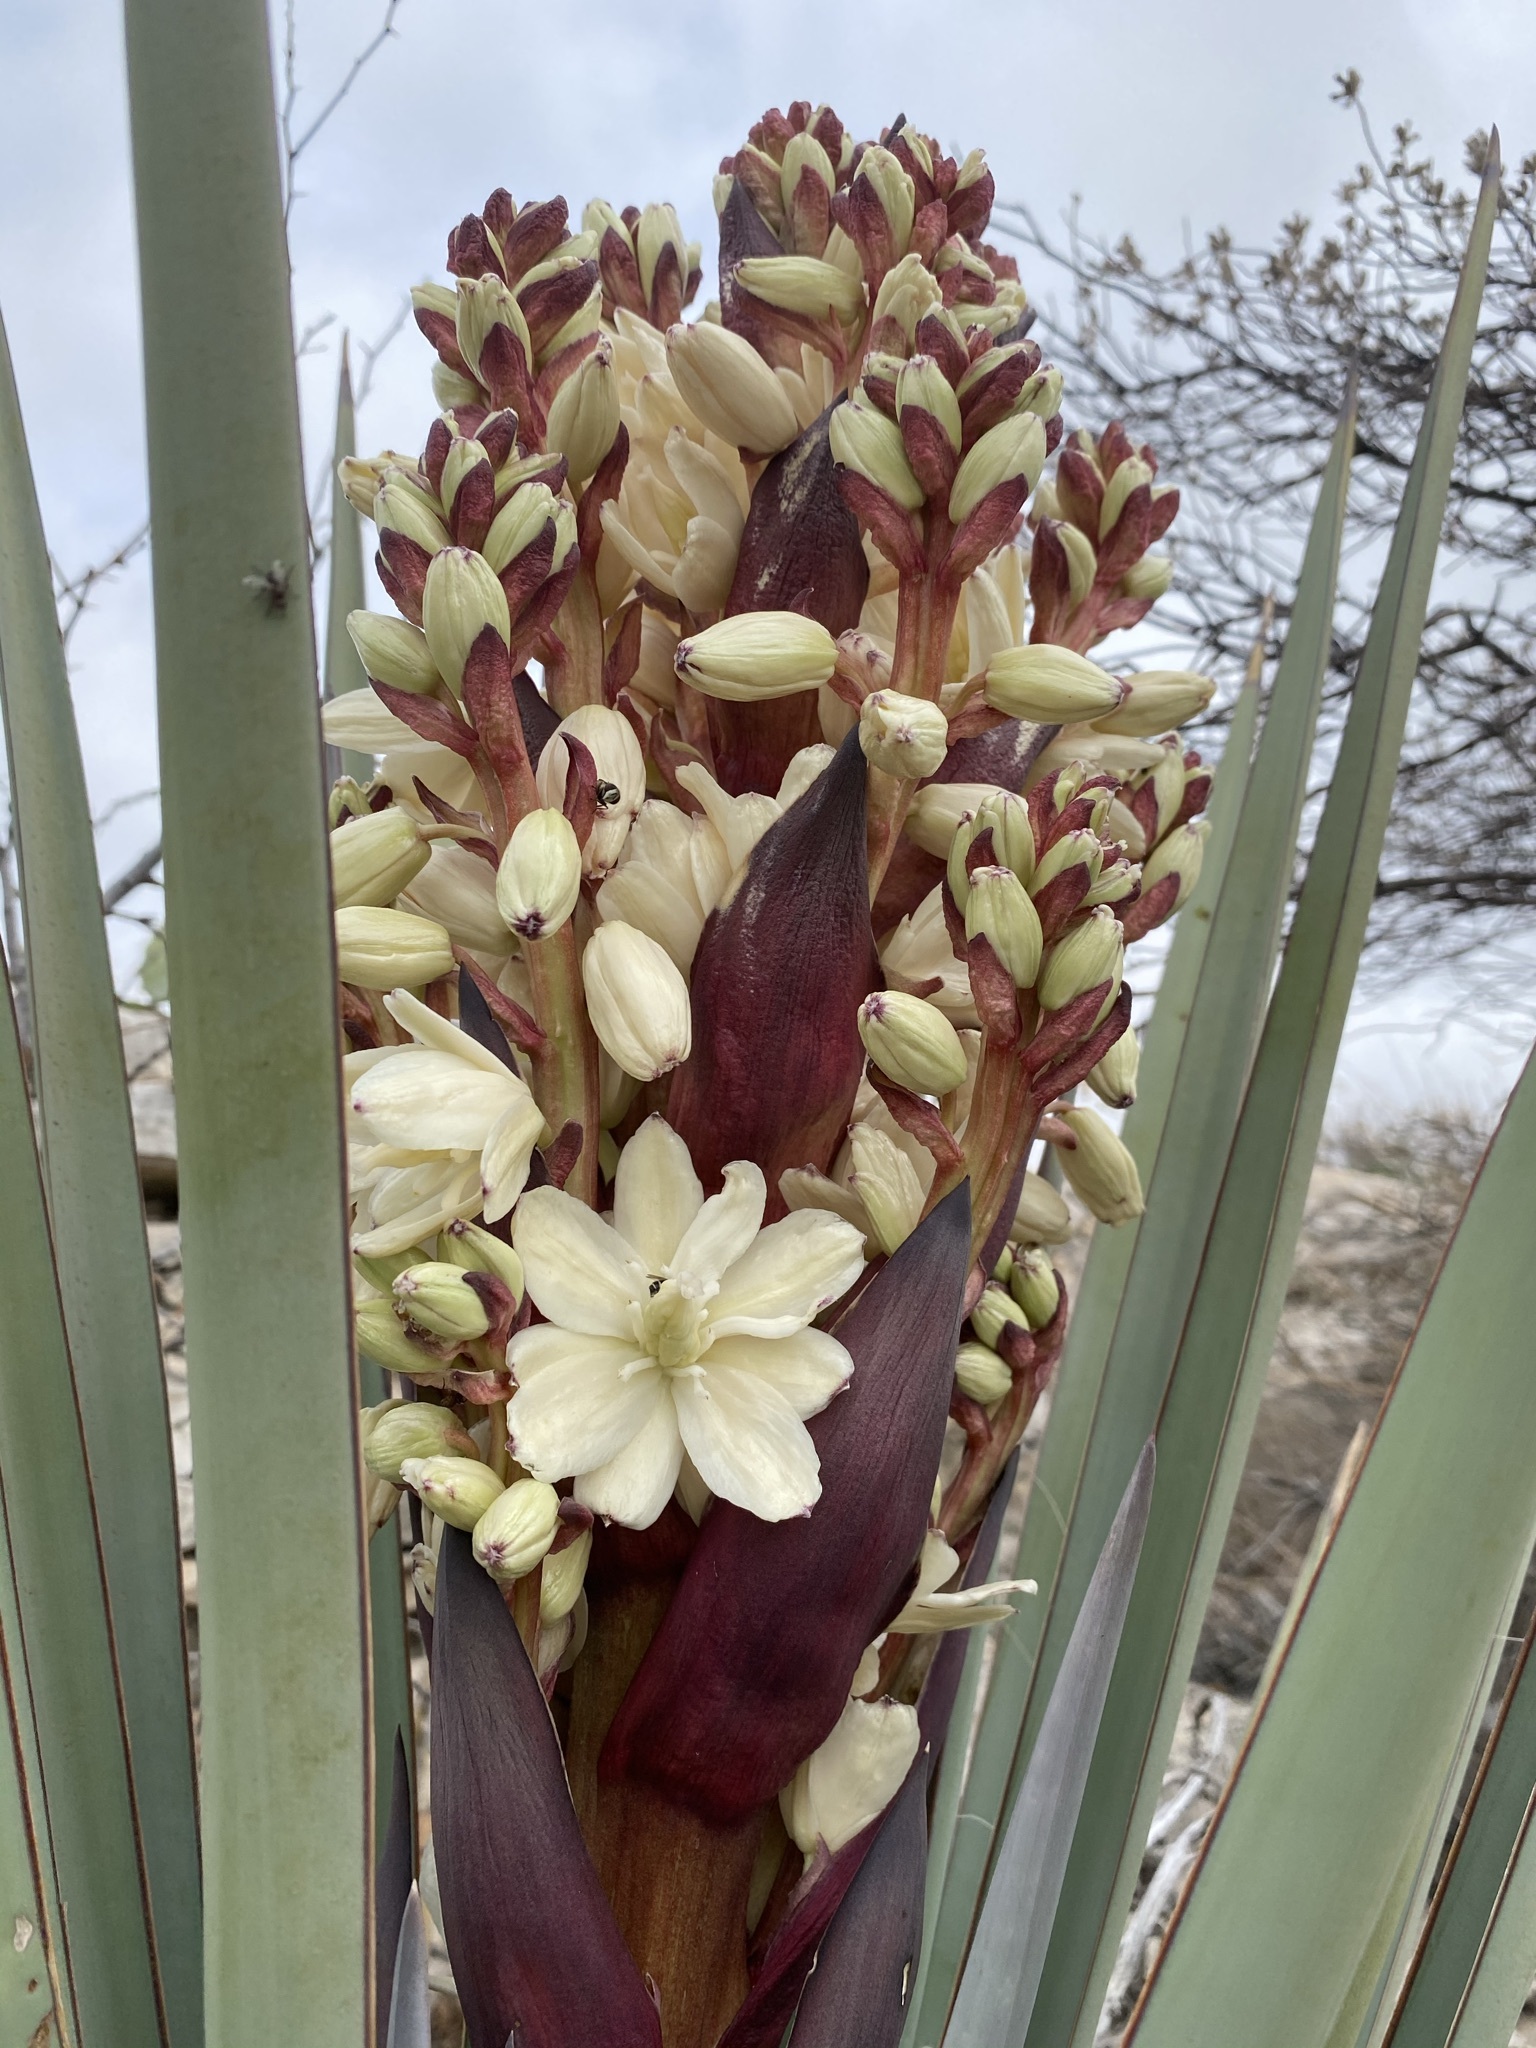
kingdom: Plantae
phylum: Tracheophyta
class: Liliopsida
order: Asparagales
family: Asparagaceae
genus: Yucca
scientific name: Yucca treculiana
